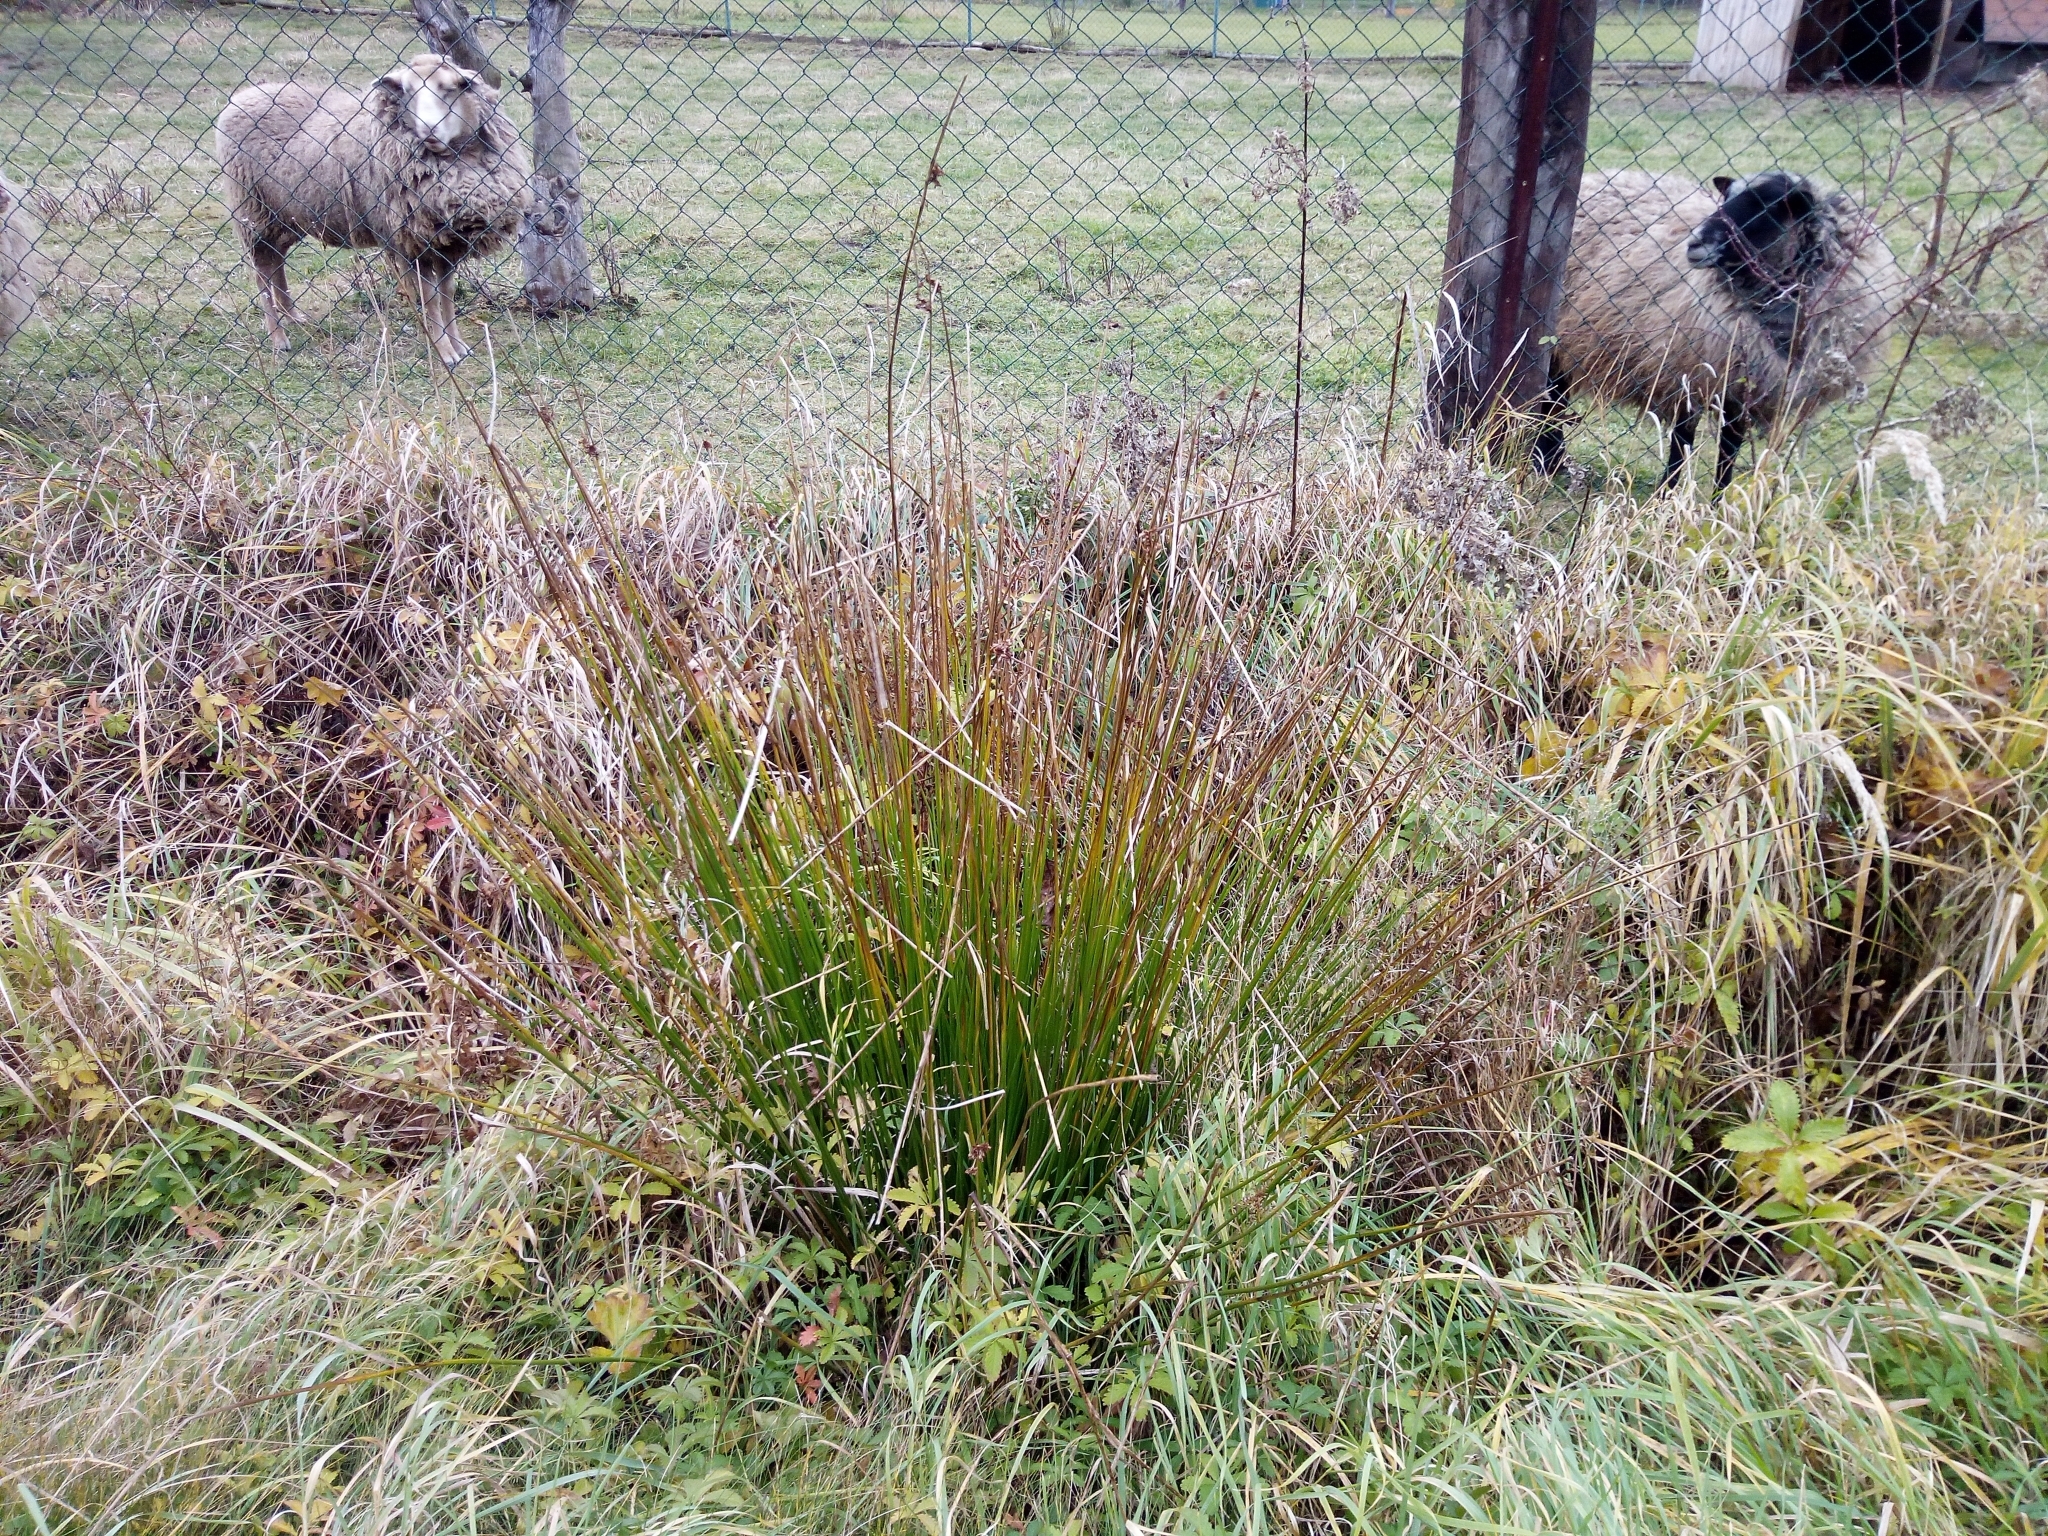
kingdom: Plantae
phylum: Tracheophyta
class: Liliopsida
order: Poales
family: Juncaceae
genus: Juncus
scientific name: Juncus effusus
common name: Soft rush
